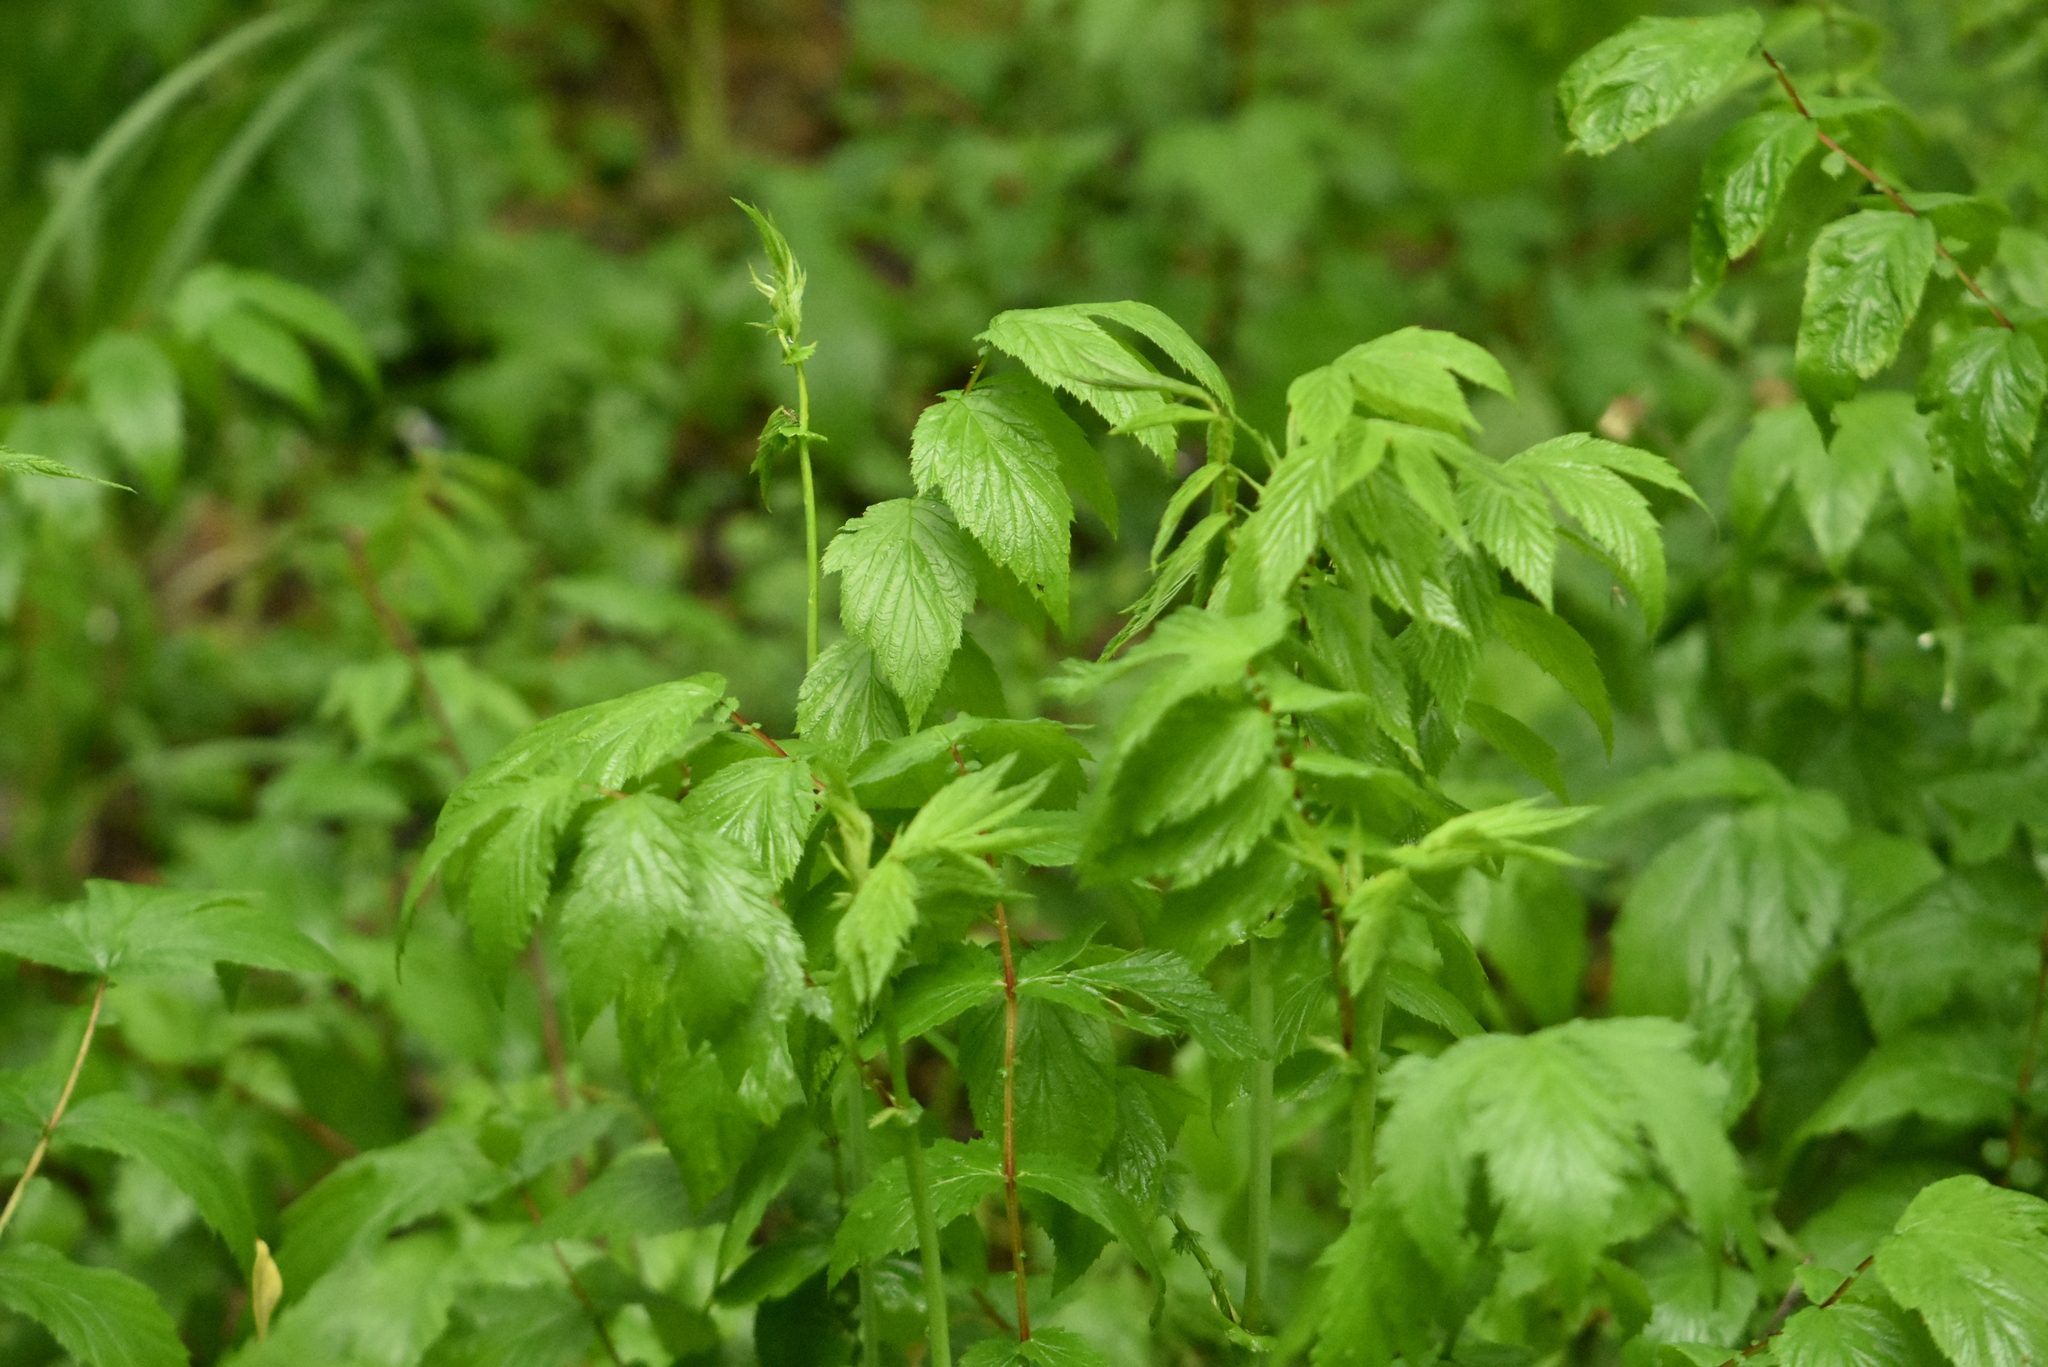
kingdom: Plantae
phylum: Tracheophyta
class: Magnoliopsida
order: Rosales
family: Rosaceae
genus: Filipendula
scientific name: Filipendula ulmaria
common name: Meadowsweet
